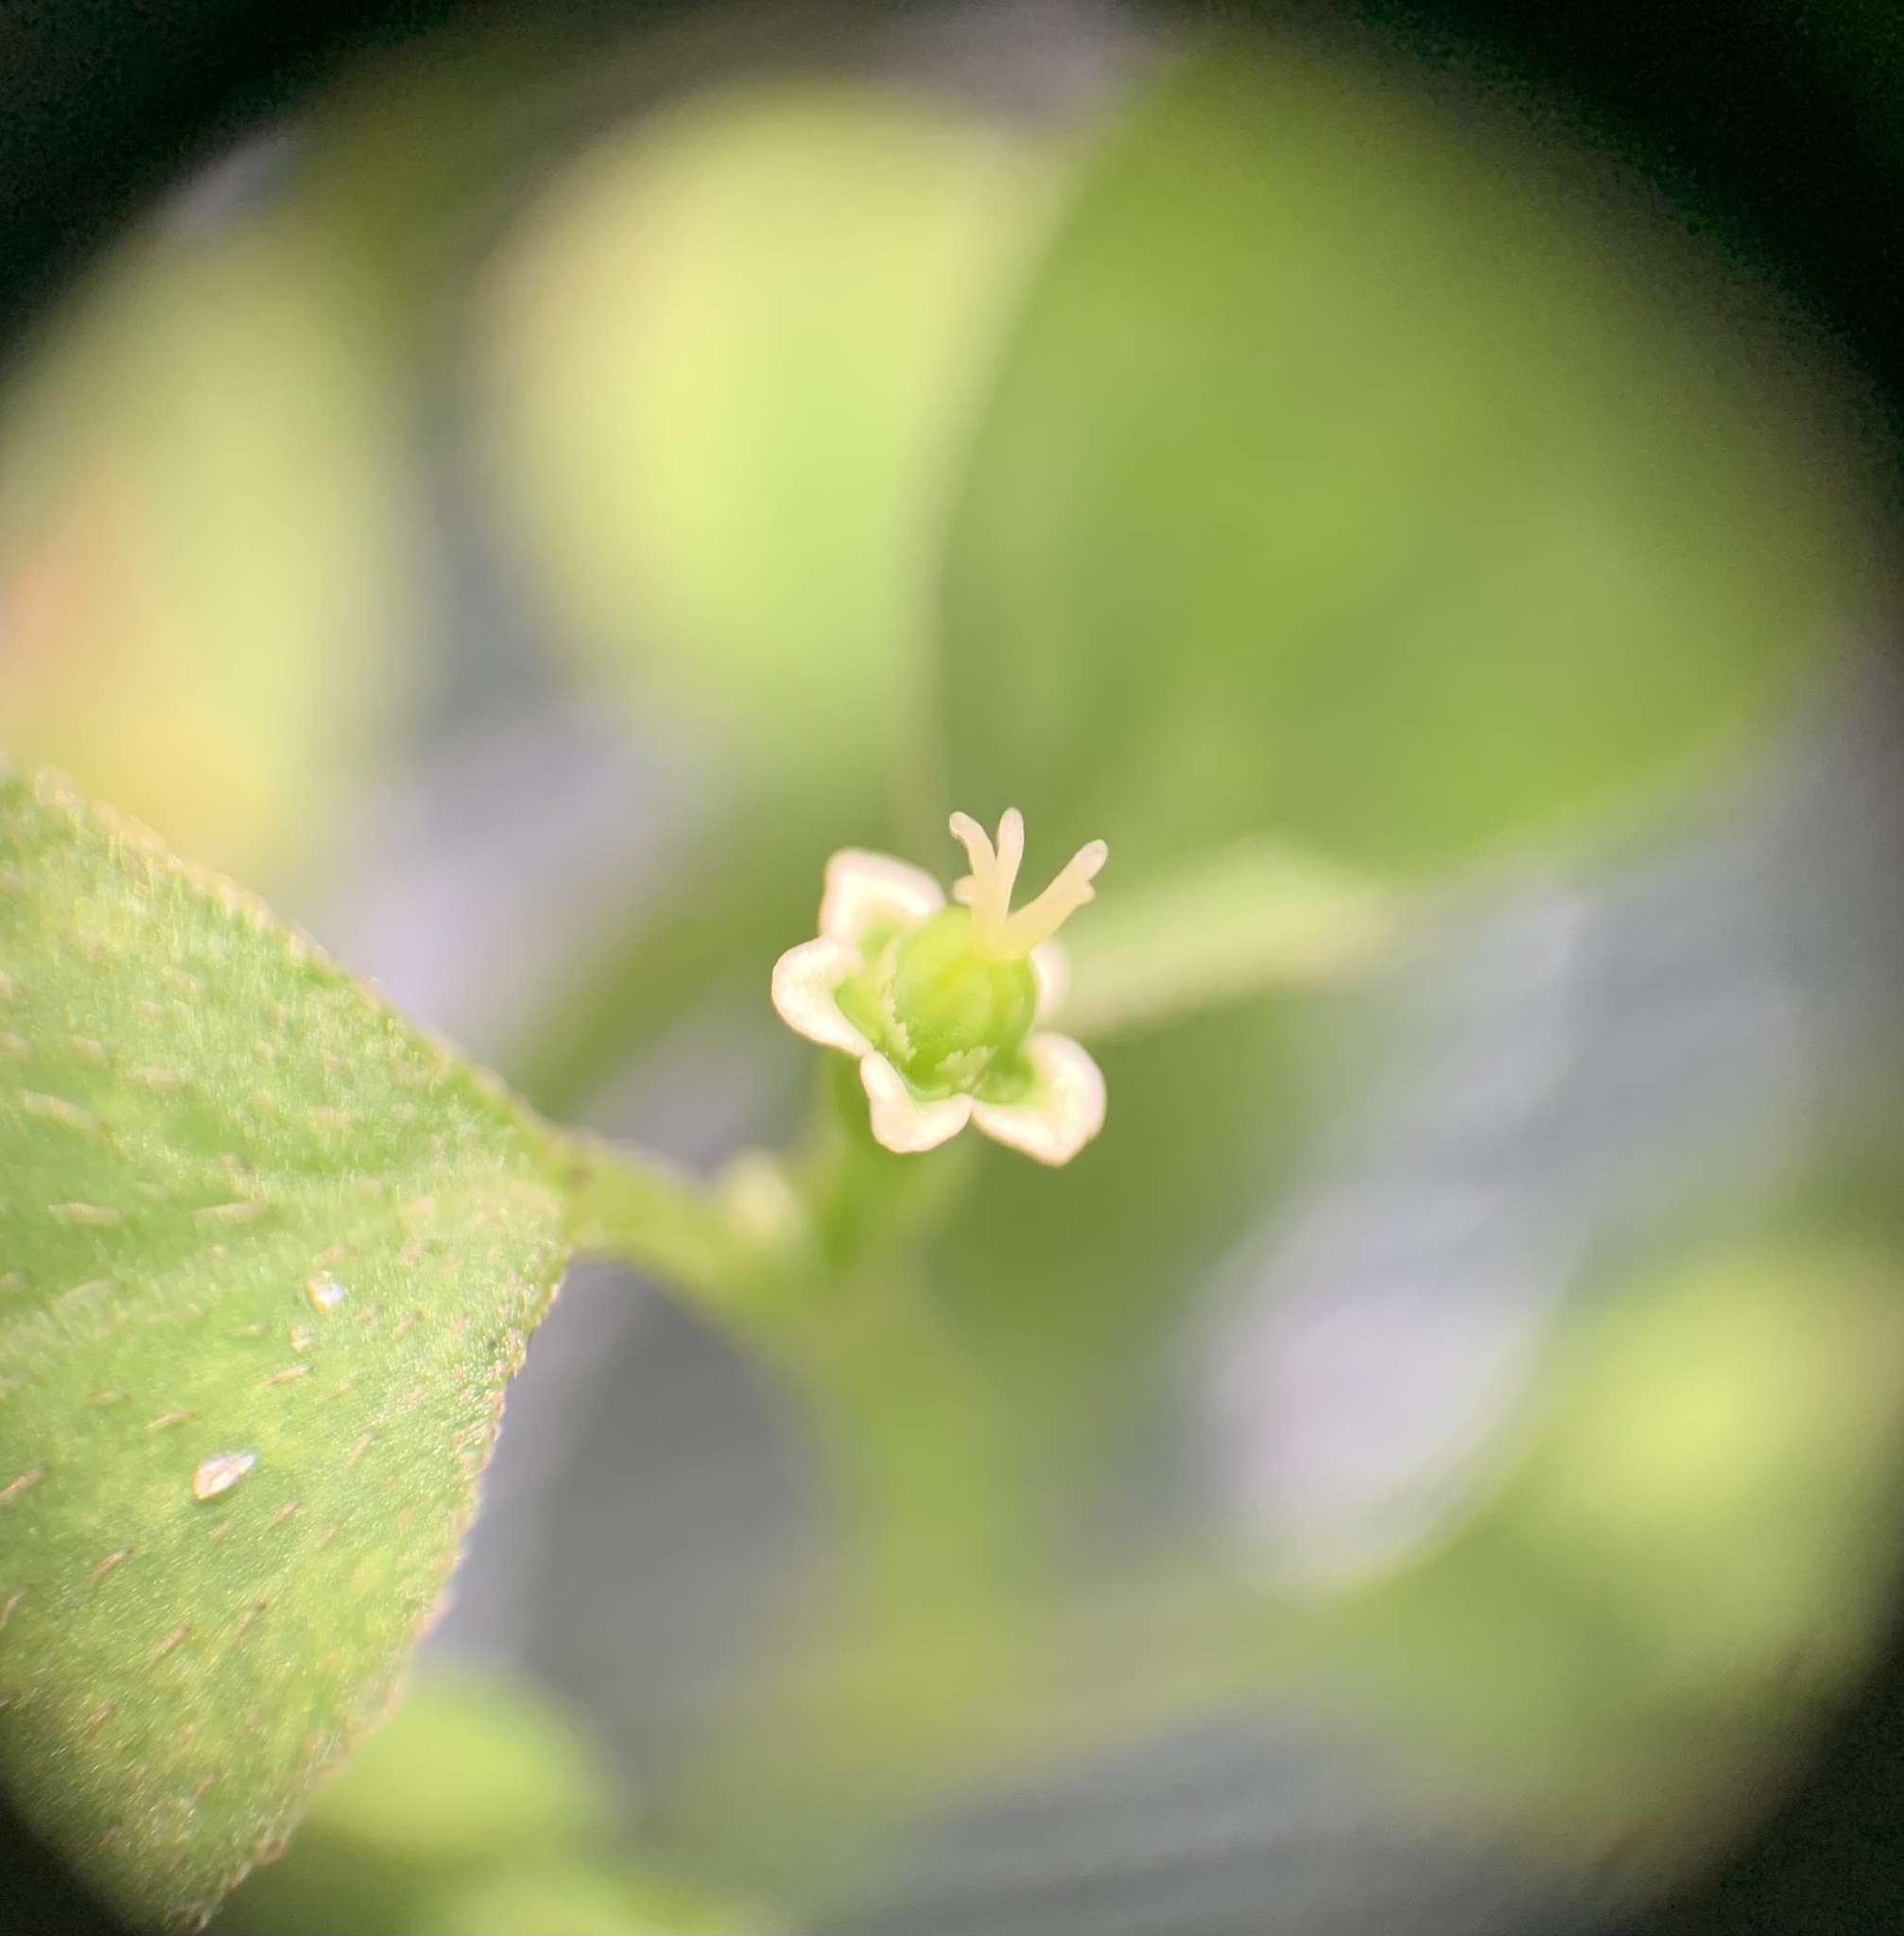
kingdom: Plantae
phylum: Tracheophyta
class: Magnoliopsida
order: Malpighiales
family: Euphorbiaceae
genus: Euphorbia
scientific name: Euphorbia graminea
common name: Grassleaf spurge
